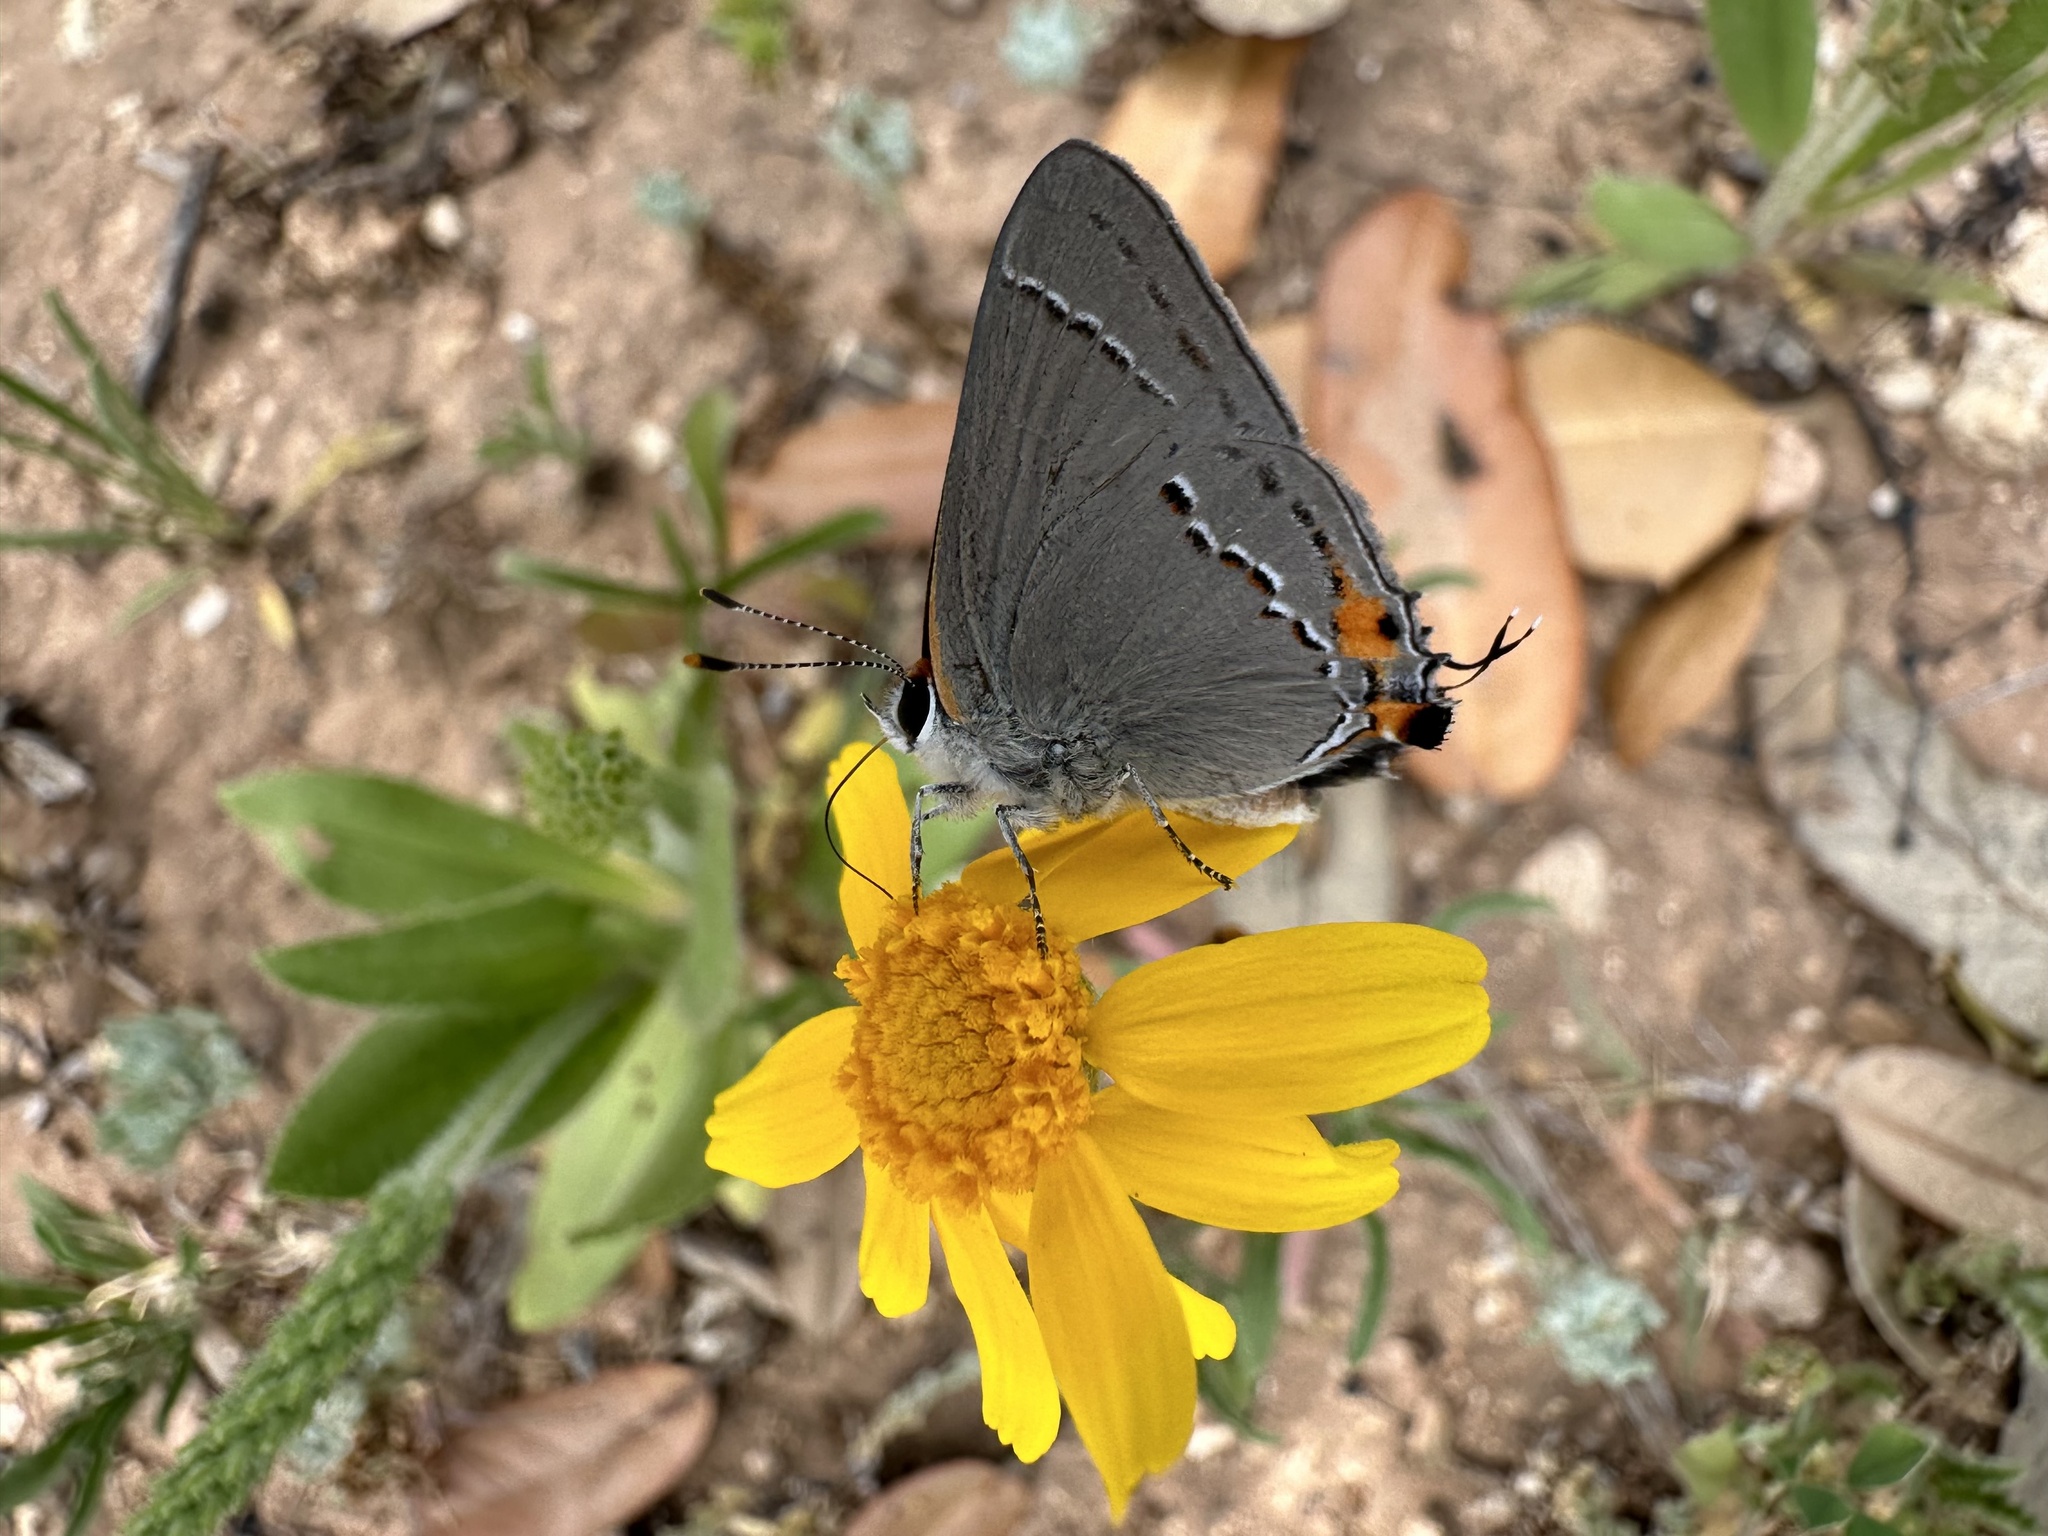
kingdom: Animalia
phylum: Arthropoda
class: Insecta
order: Lepidoptera
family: Lycaenidae
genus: Strymon
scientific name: Strymon melinus
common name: Gray hairstreak
